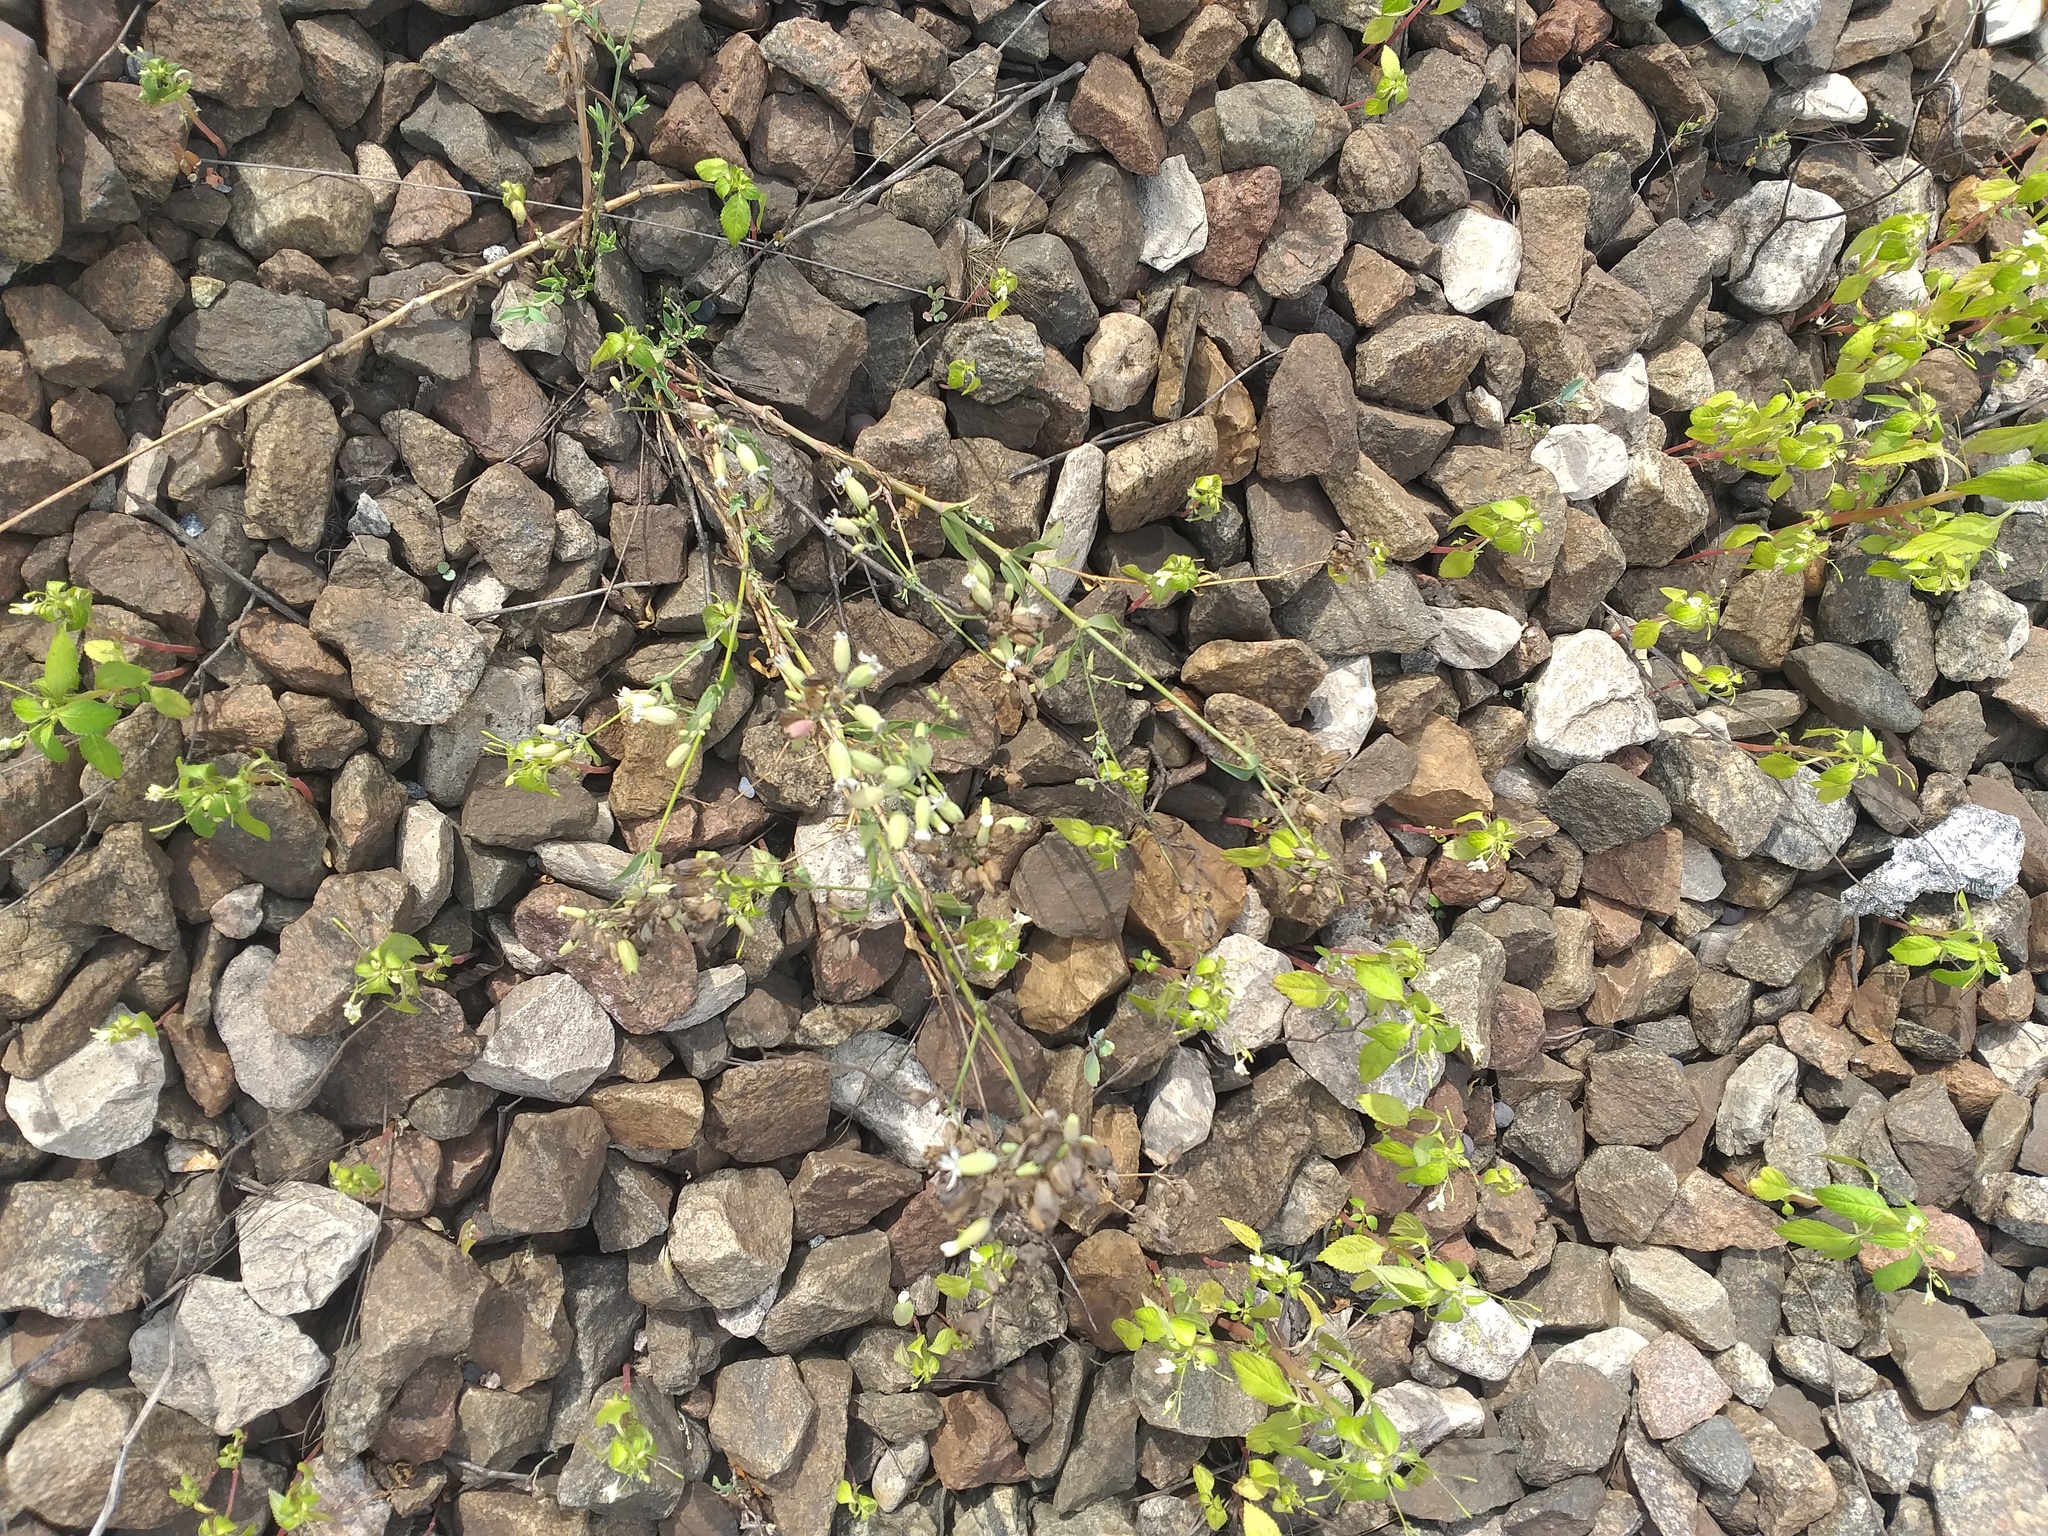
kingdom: Plantae
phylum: Tracheophyta
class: Magnoliopsida
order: Caryophyllales
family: Caryophyllaceae
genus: Silene
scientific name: Silene vulgaris
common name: Bladder campion
